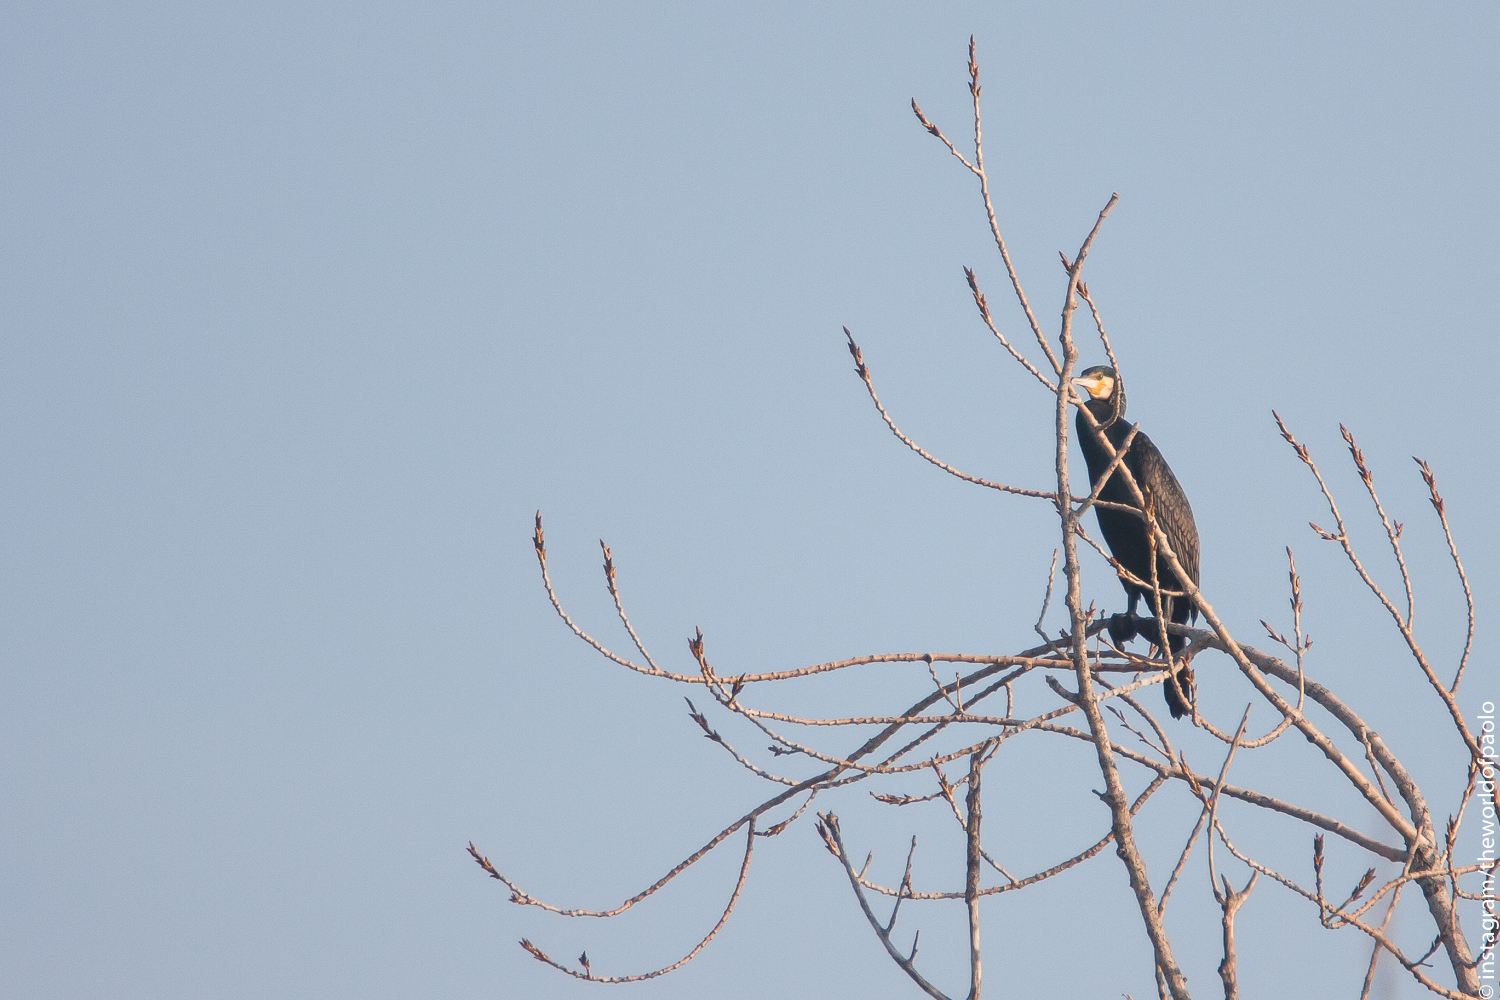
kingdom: Animalia
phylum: Chordata
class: Aves
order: Suliformes
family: Phalacrocoracidae
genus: Phalacrocorax
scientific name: Phalacrocorax carbo
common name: Great cormorant
